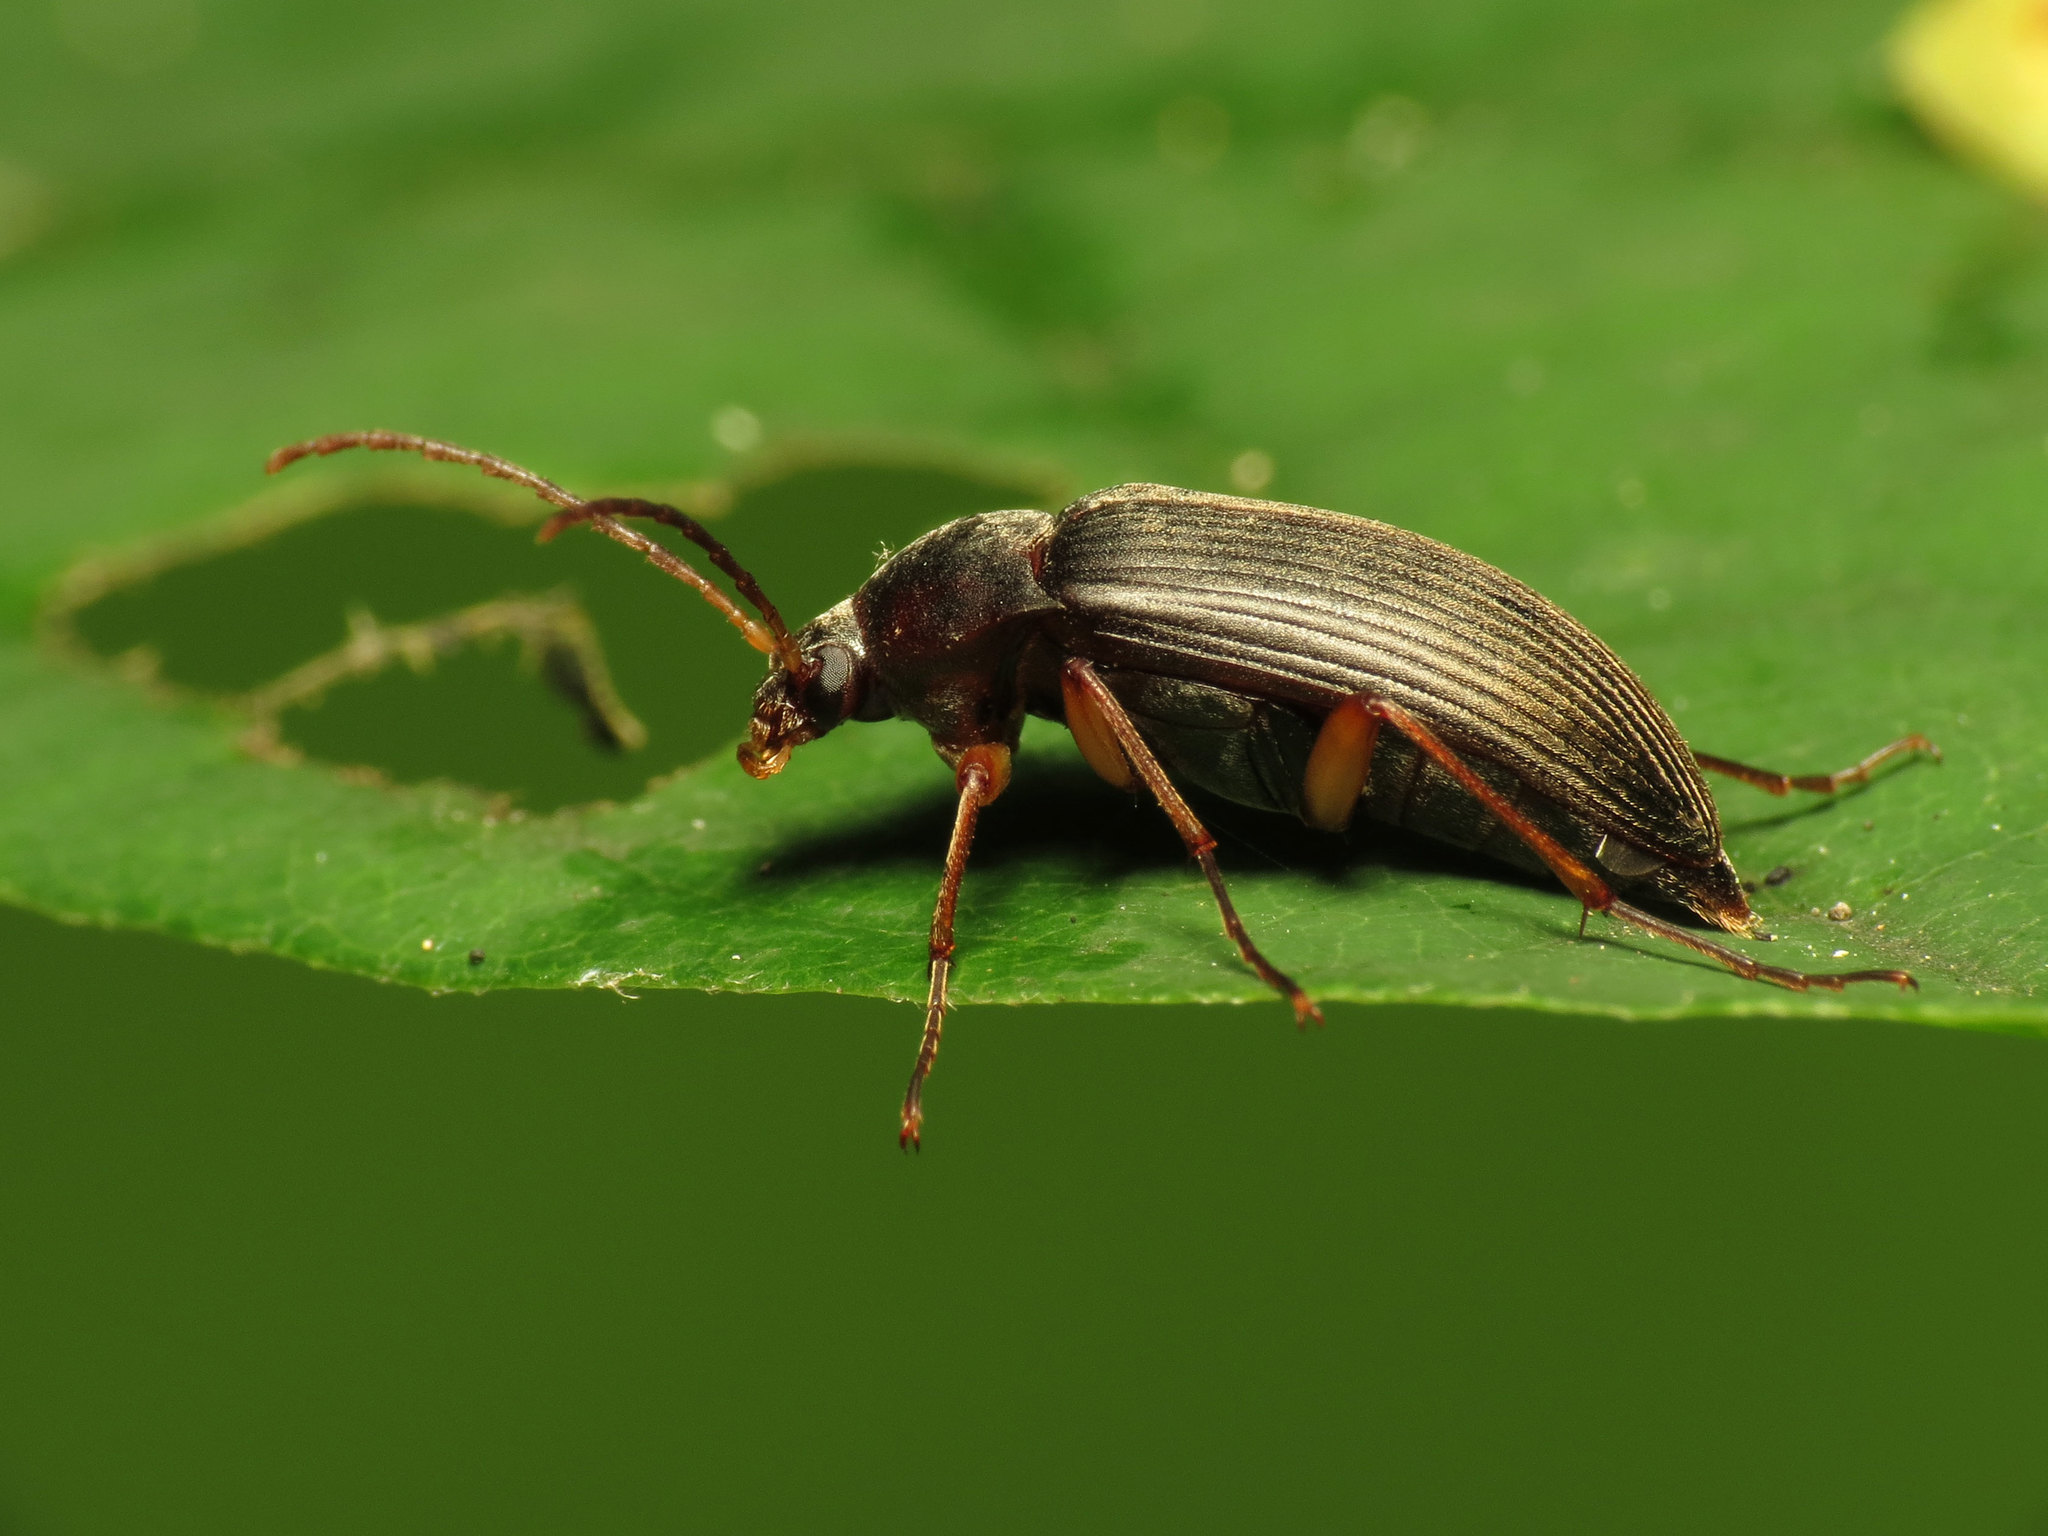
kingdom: Animalia
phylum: Arthropoda
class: Insecta
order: Coleoptera
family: Tenebrionidae
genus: Androchirus
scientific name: Androchirus erythropus
